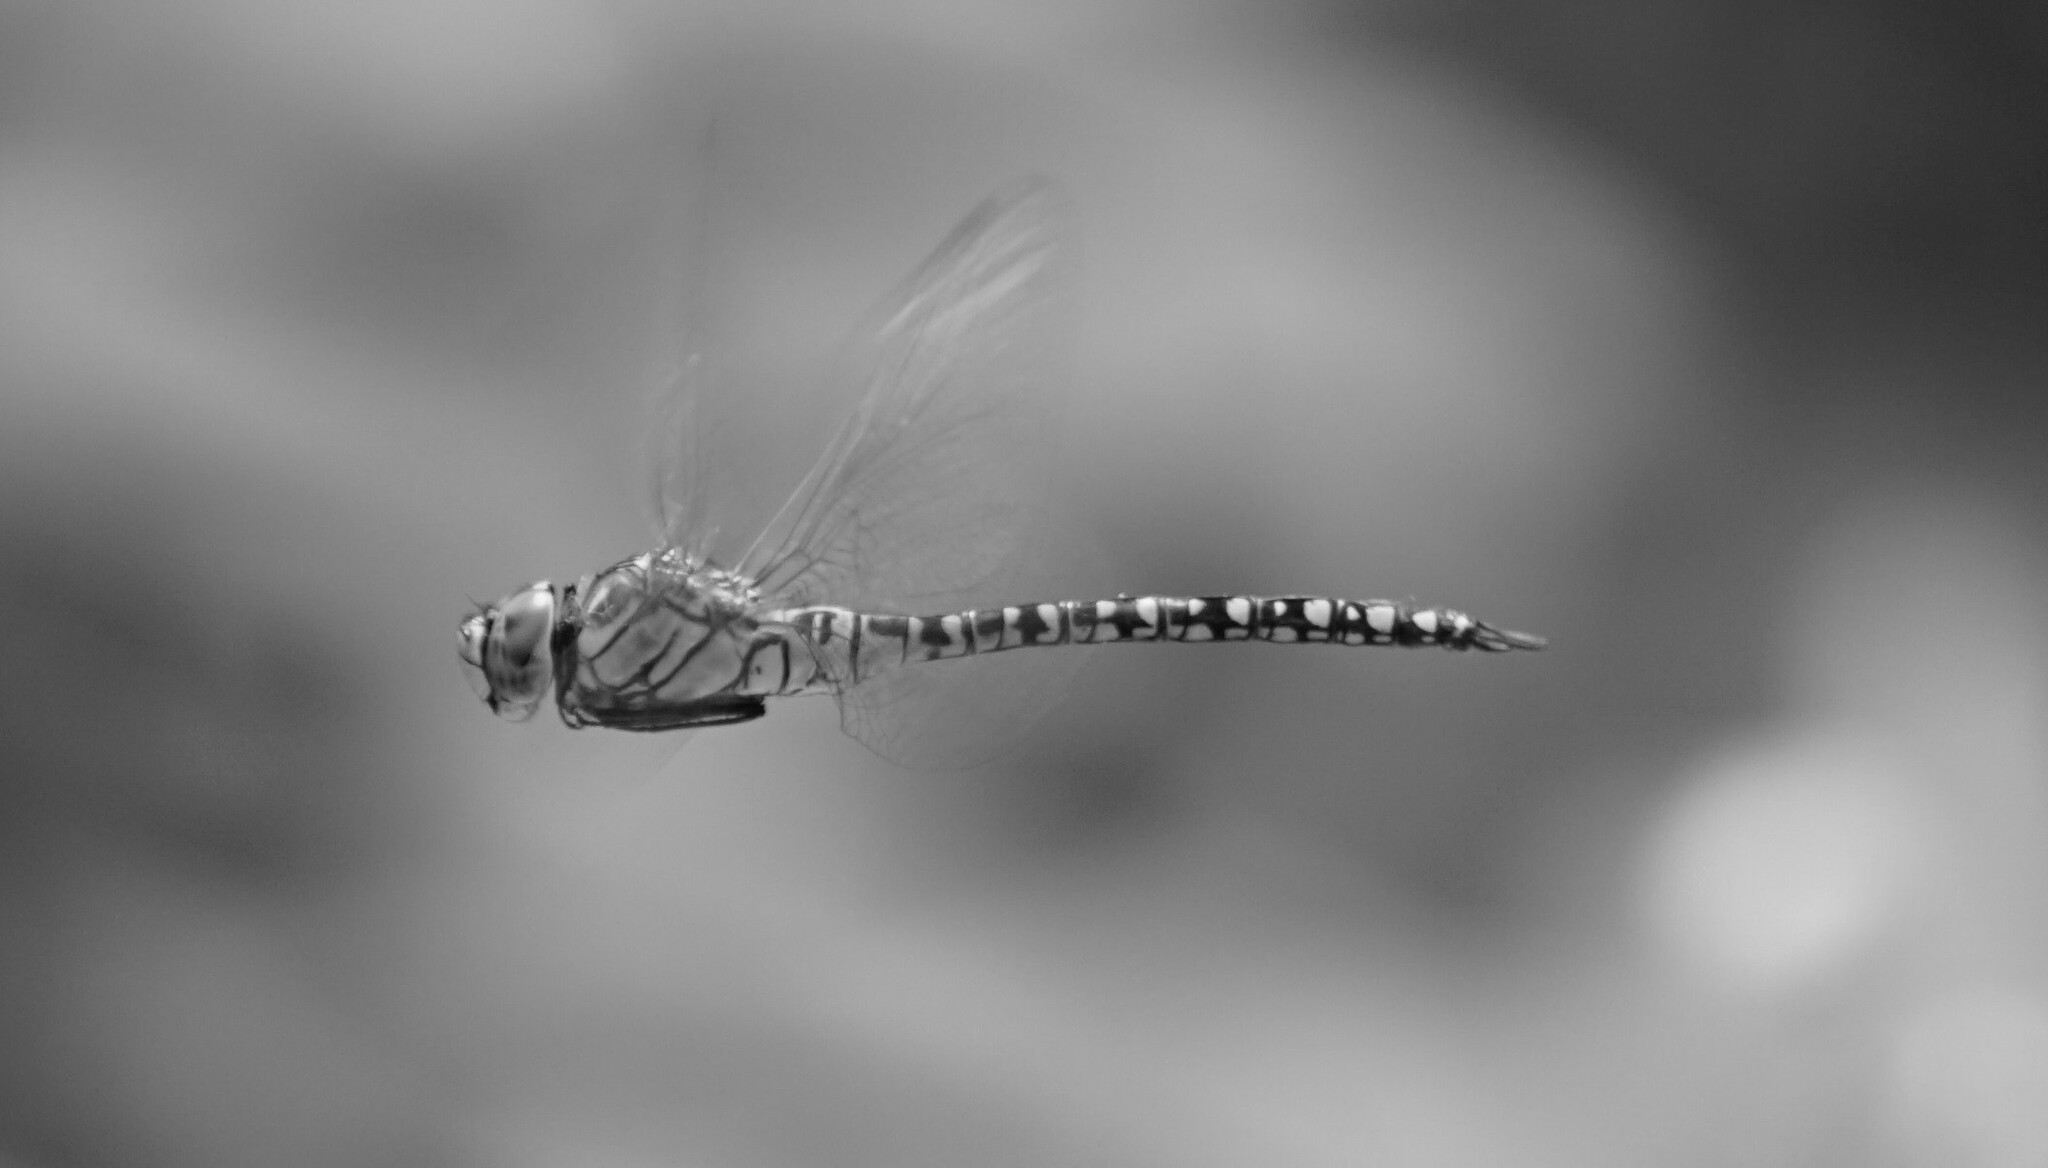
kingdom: Animalia
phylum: Arthropoda
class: Insecta
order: Odonata
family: Aeshnidae
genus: Aeshna
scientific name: Aeshna affinis
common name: Southern migrant hawker
